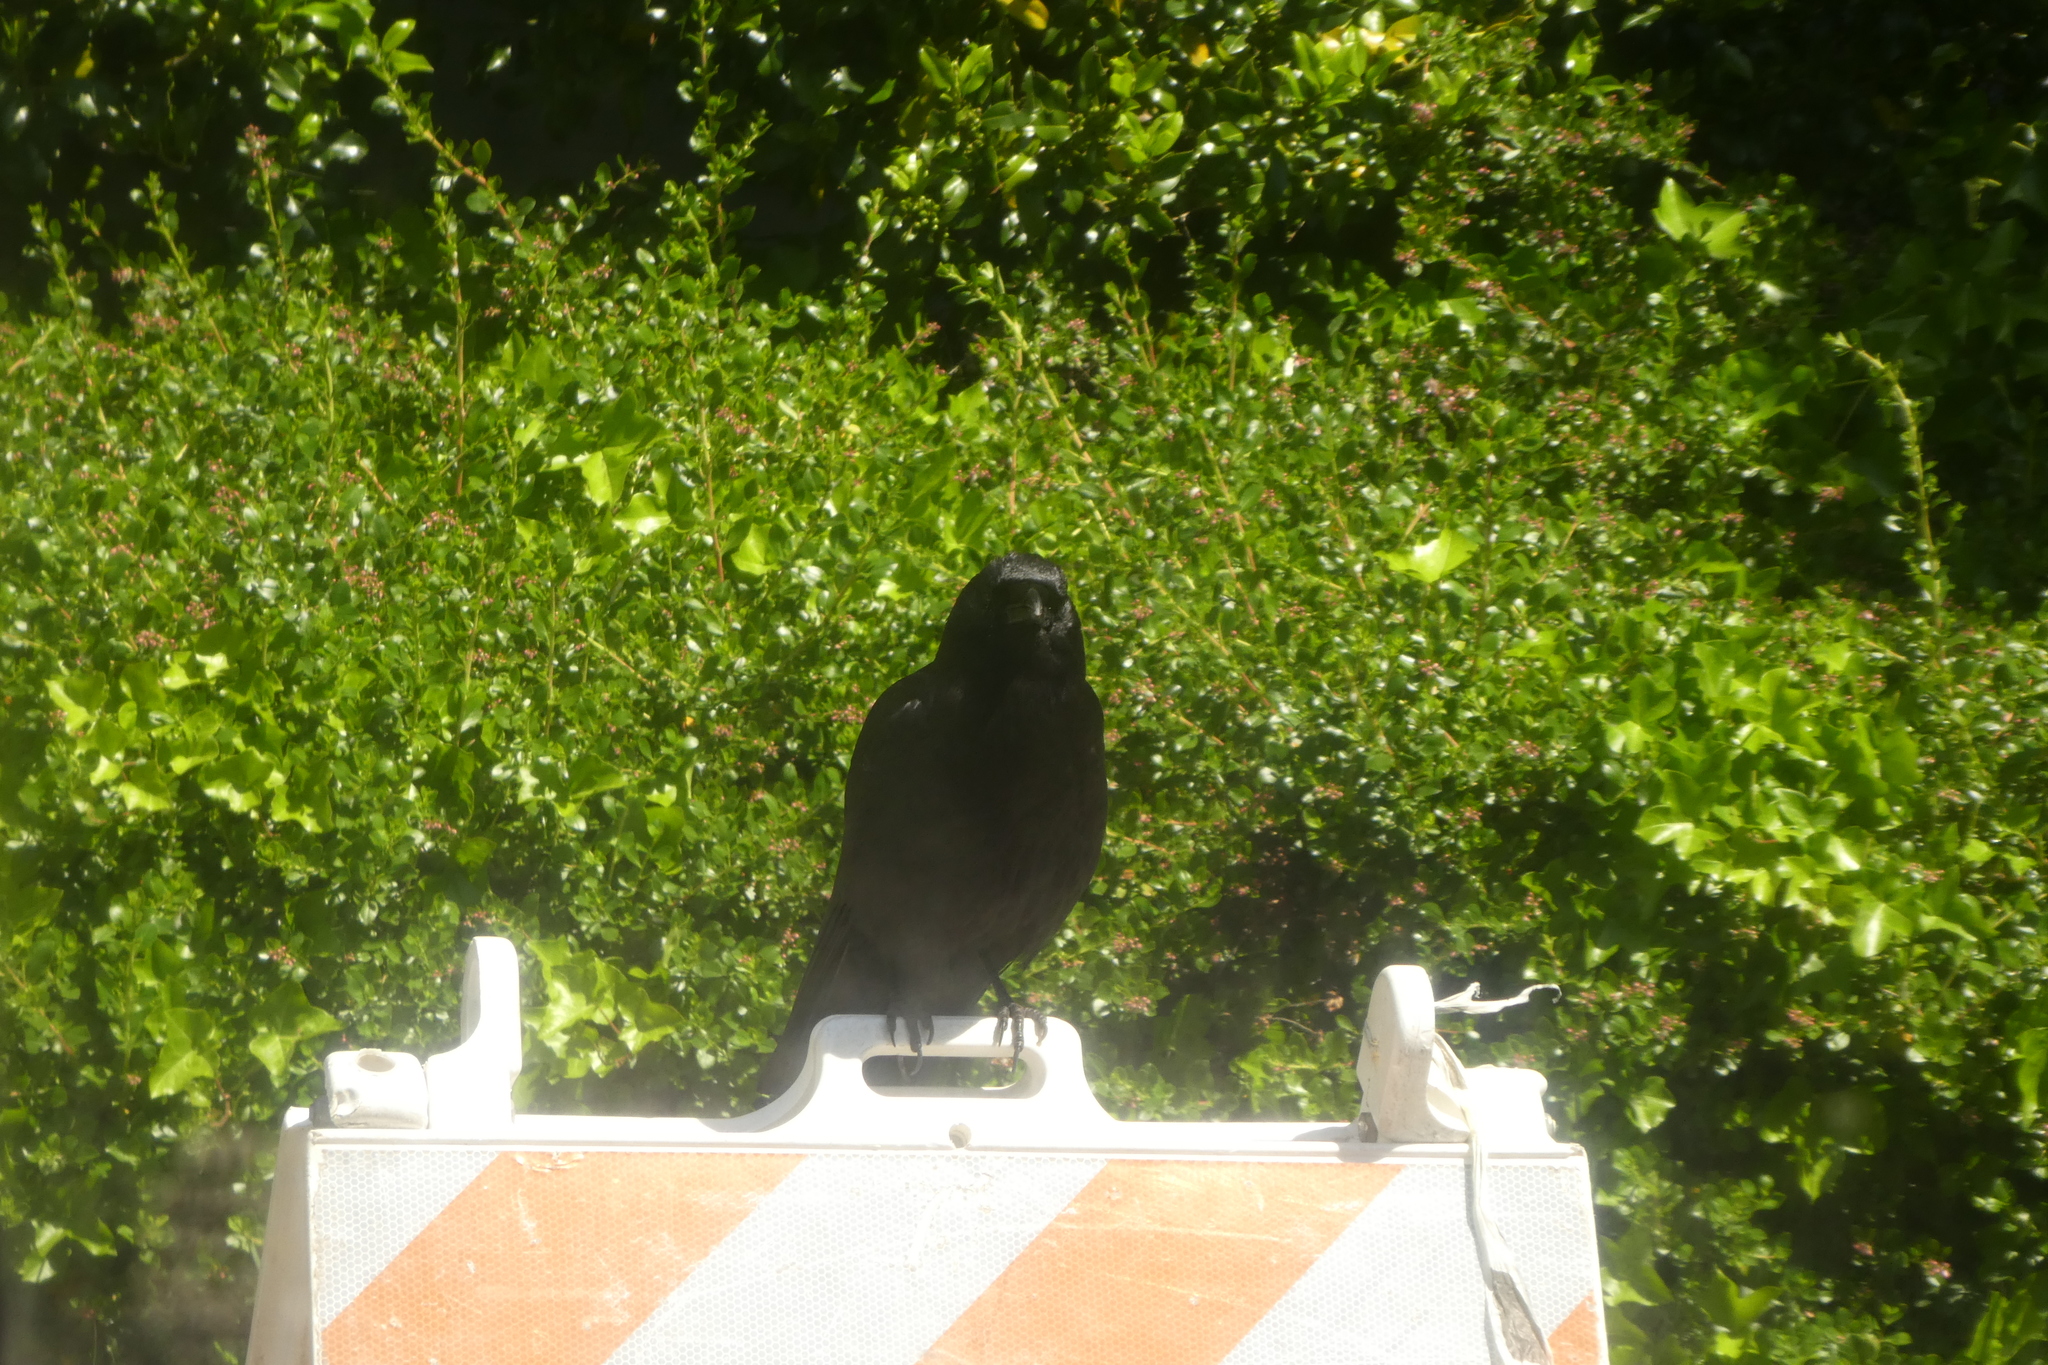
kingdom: Animalia
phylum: Chordata
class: Aves
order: Passeriformes
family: Corvidae
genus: Corvus
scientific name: Corvus brachyrhynchos
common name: American crow
